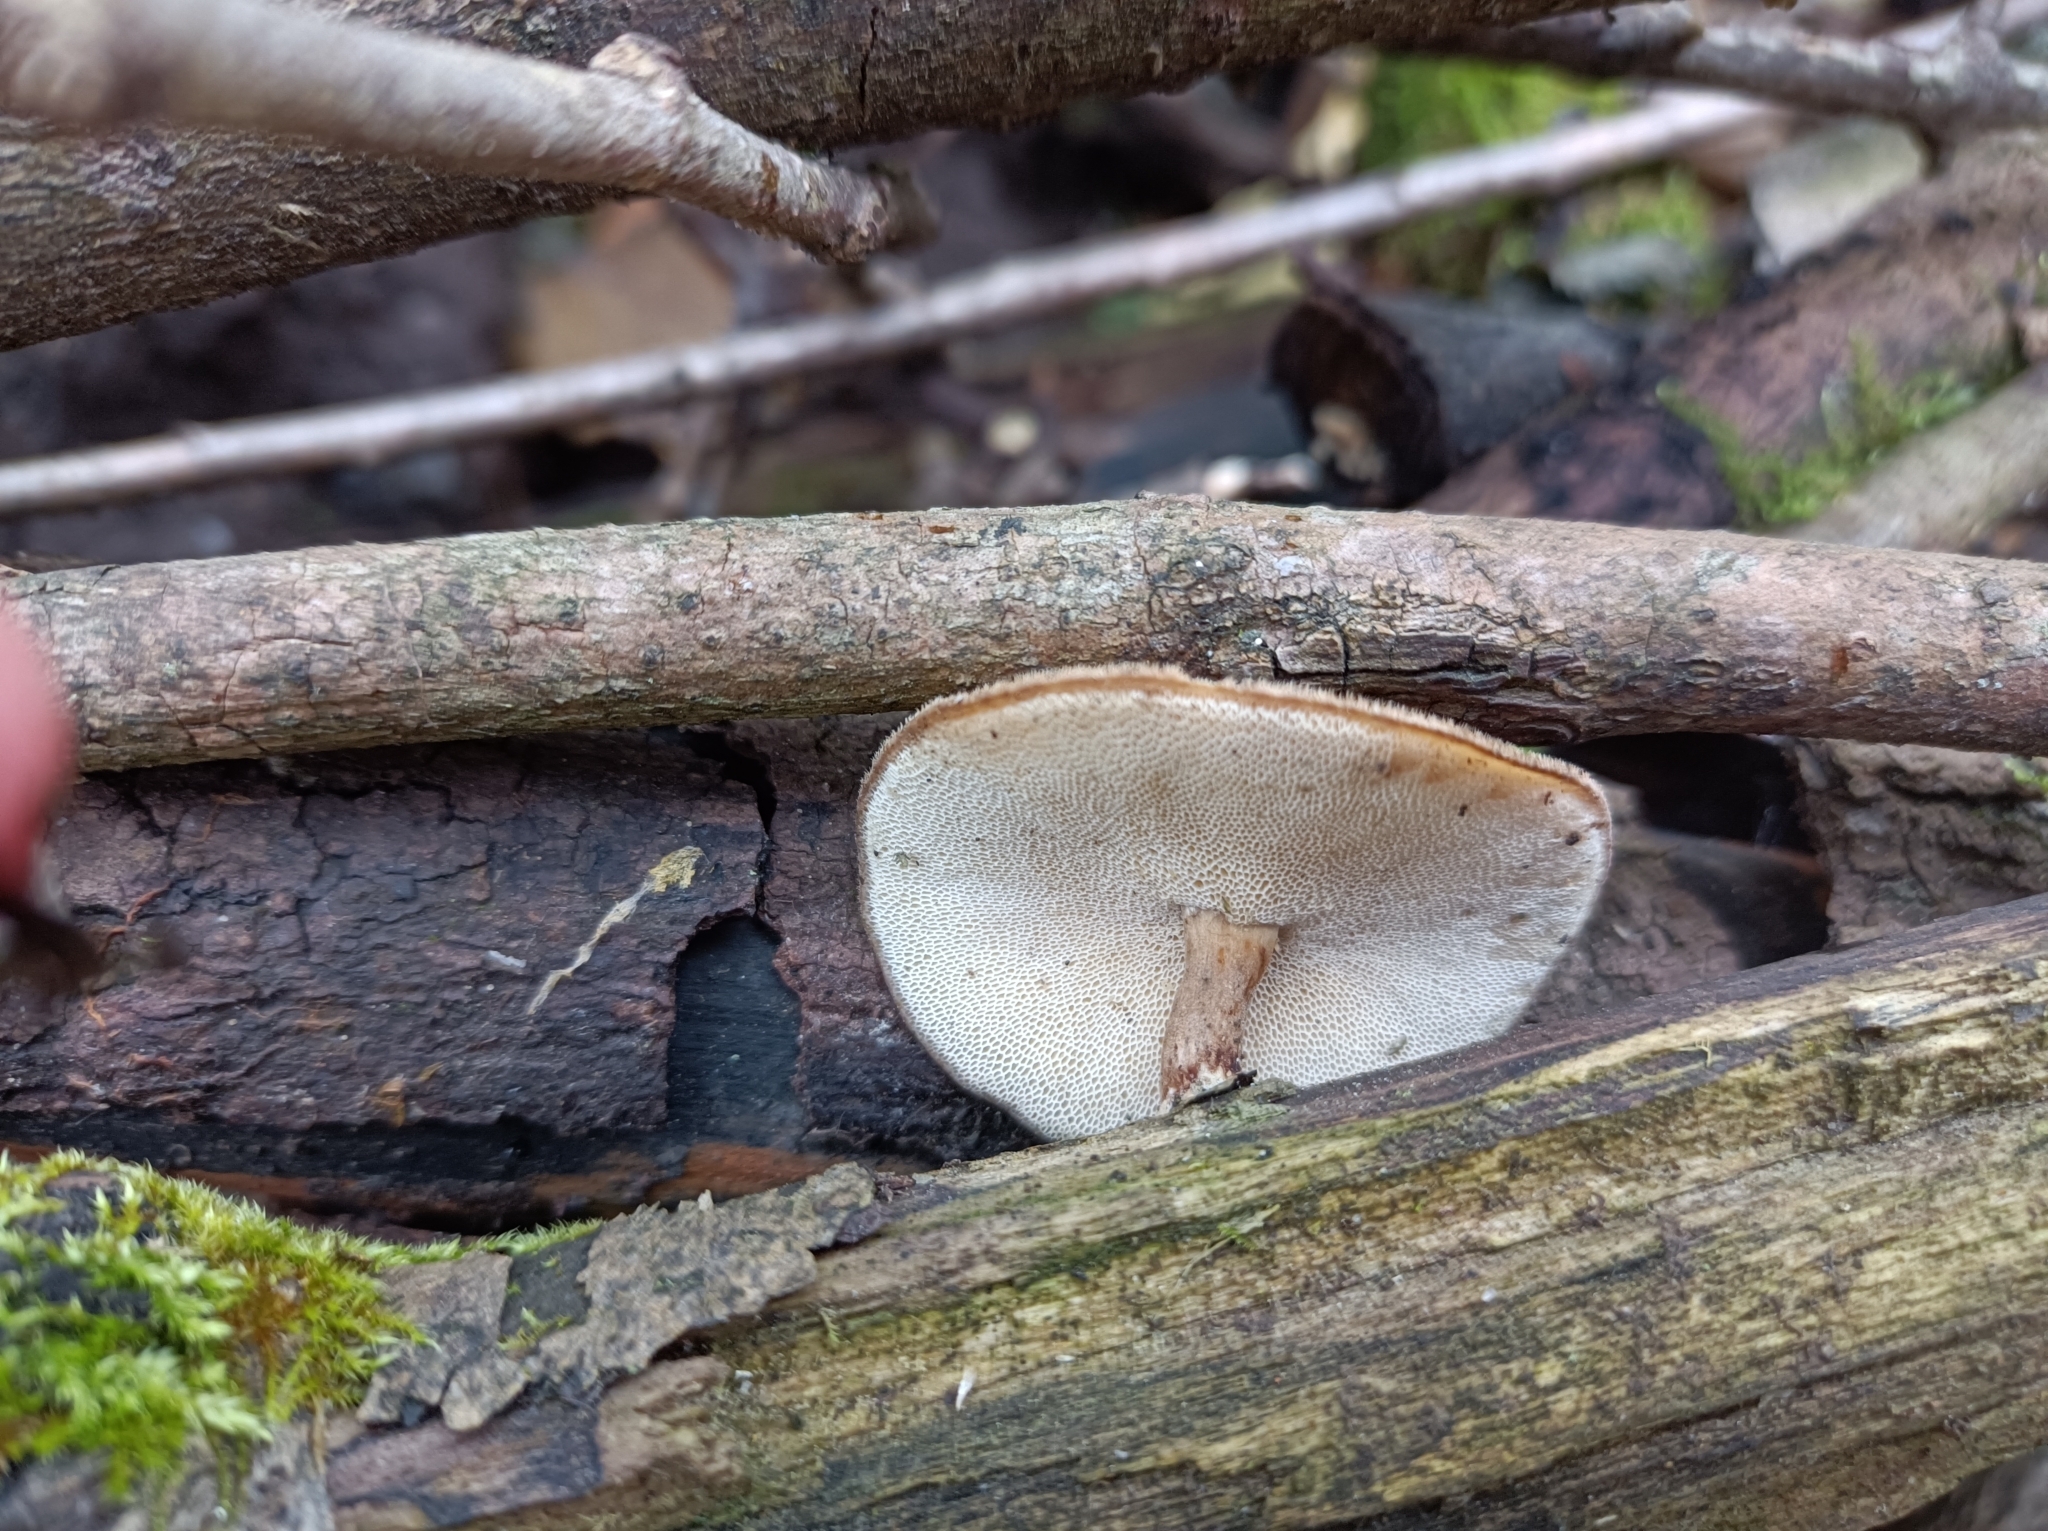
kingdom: Fungi
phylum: Basidiomycota
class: Agaricomycetes
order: Polyporales
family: Polyporaceae
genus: Lentinus
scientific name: Lentinus brumalis
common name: Winter polypore
